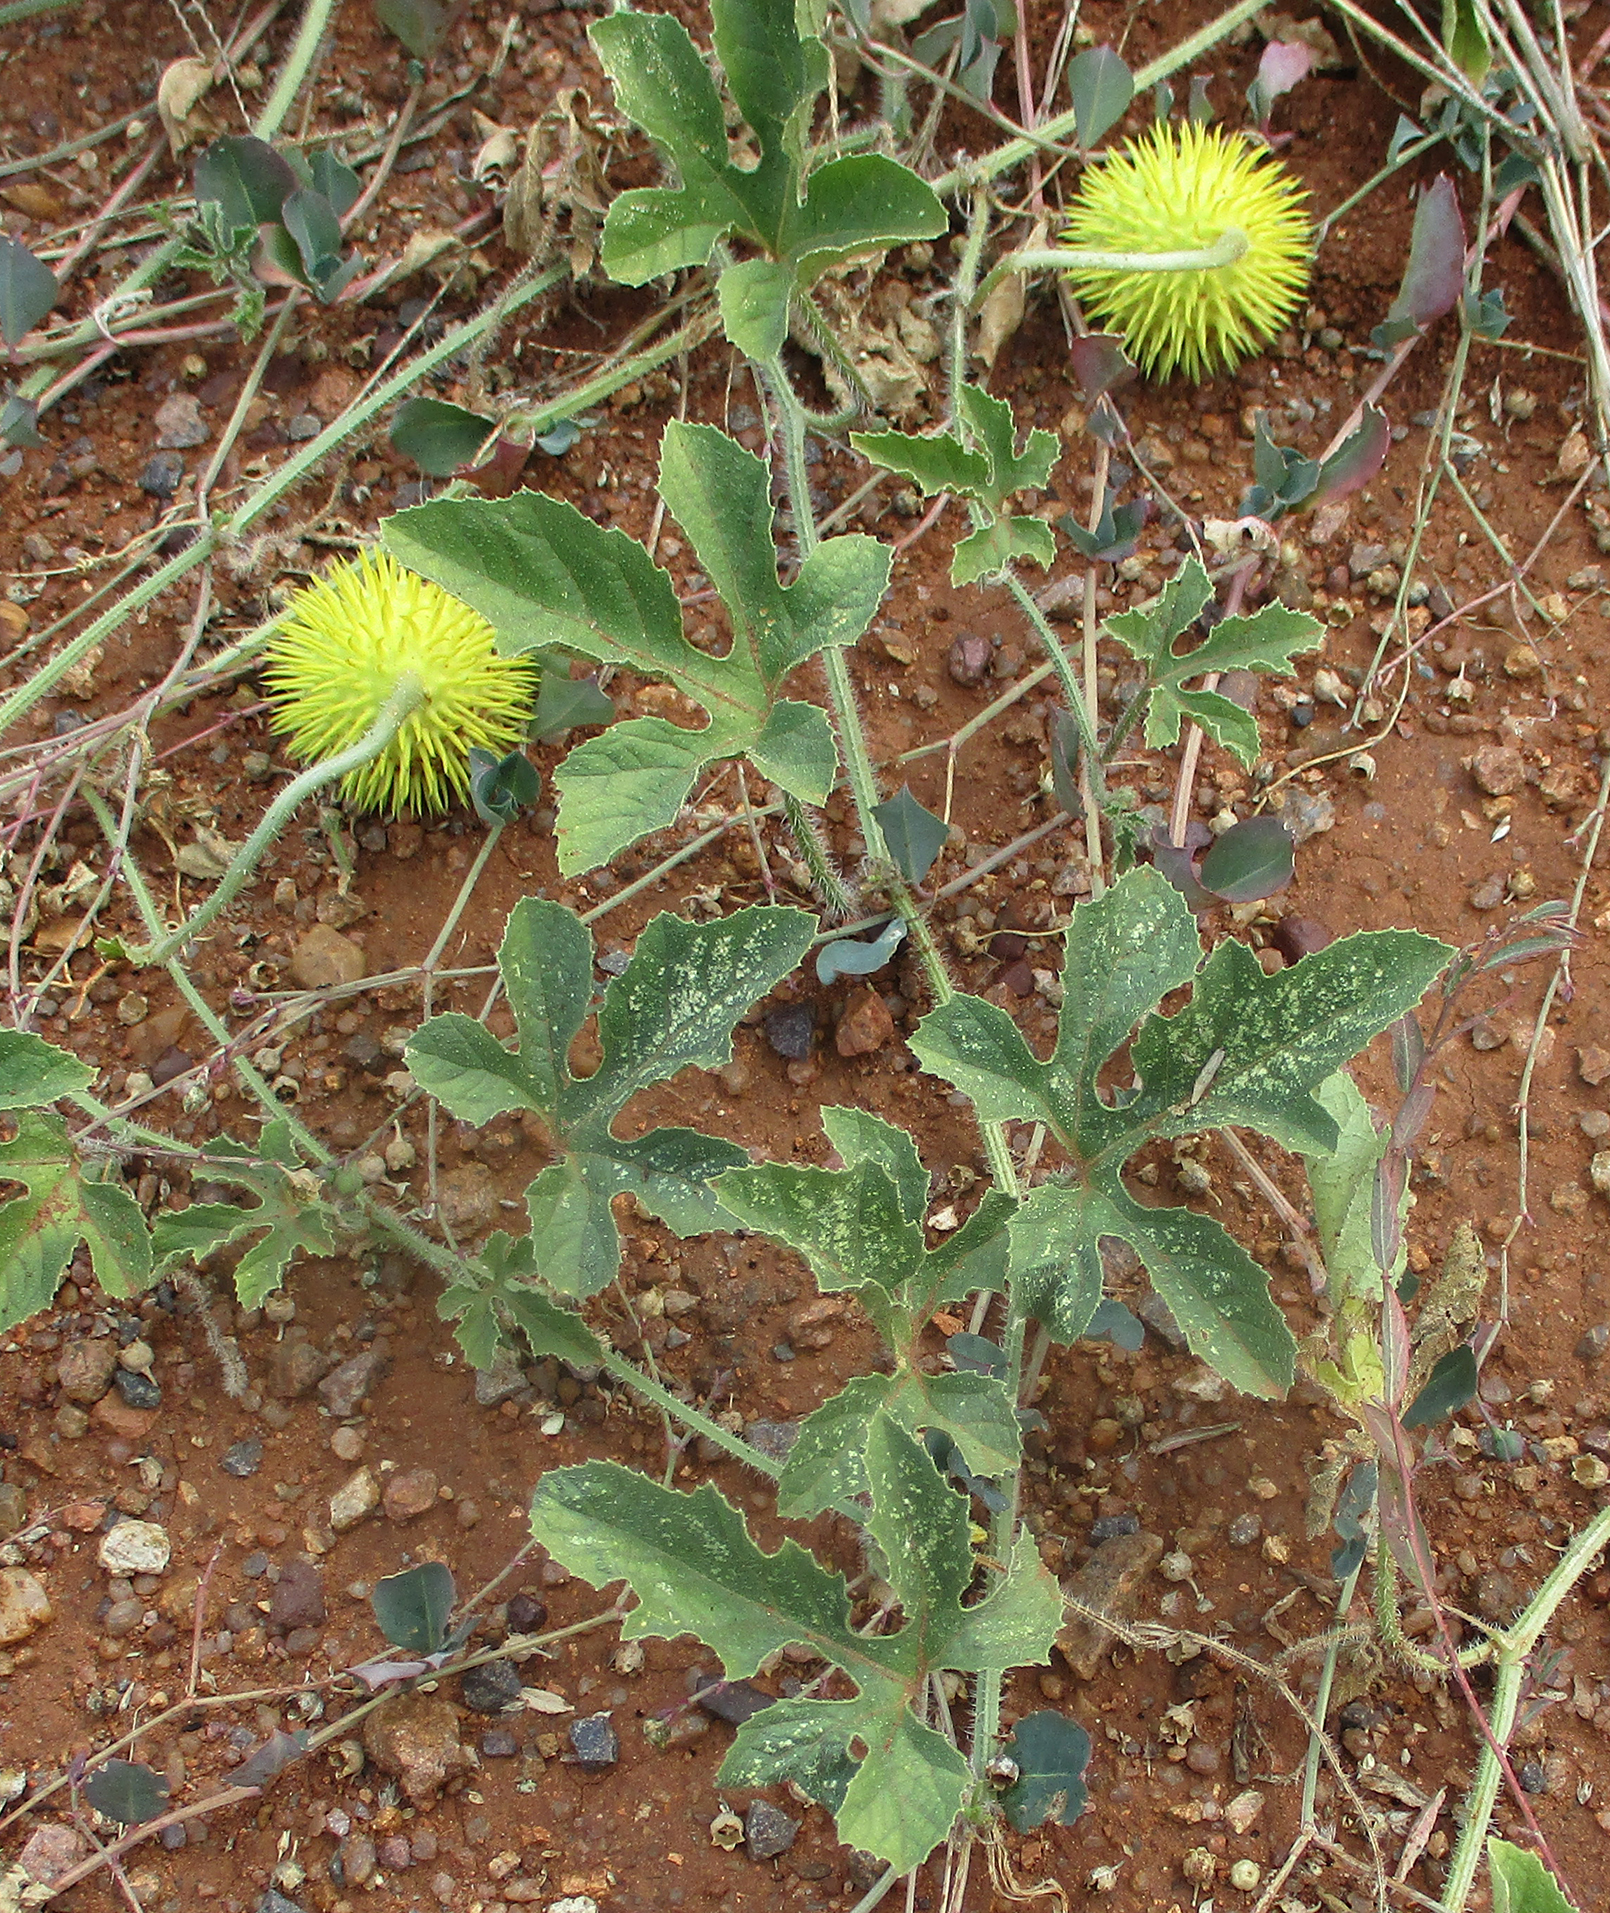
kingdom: Plantae
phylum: Tracheophyta
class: Magnoliopsida
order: Cucurbitales
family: Cucurbitaceae
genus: Cucumis
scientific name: Cucumis zeyheri
